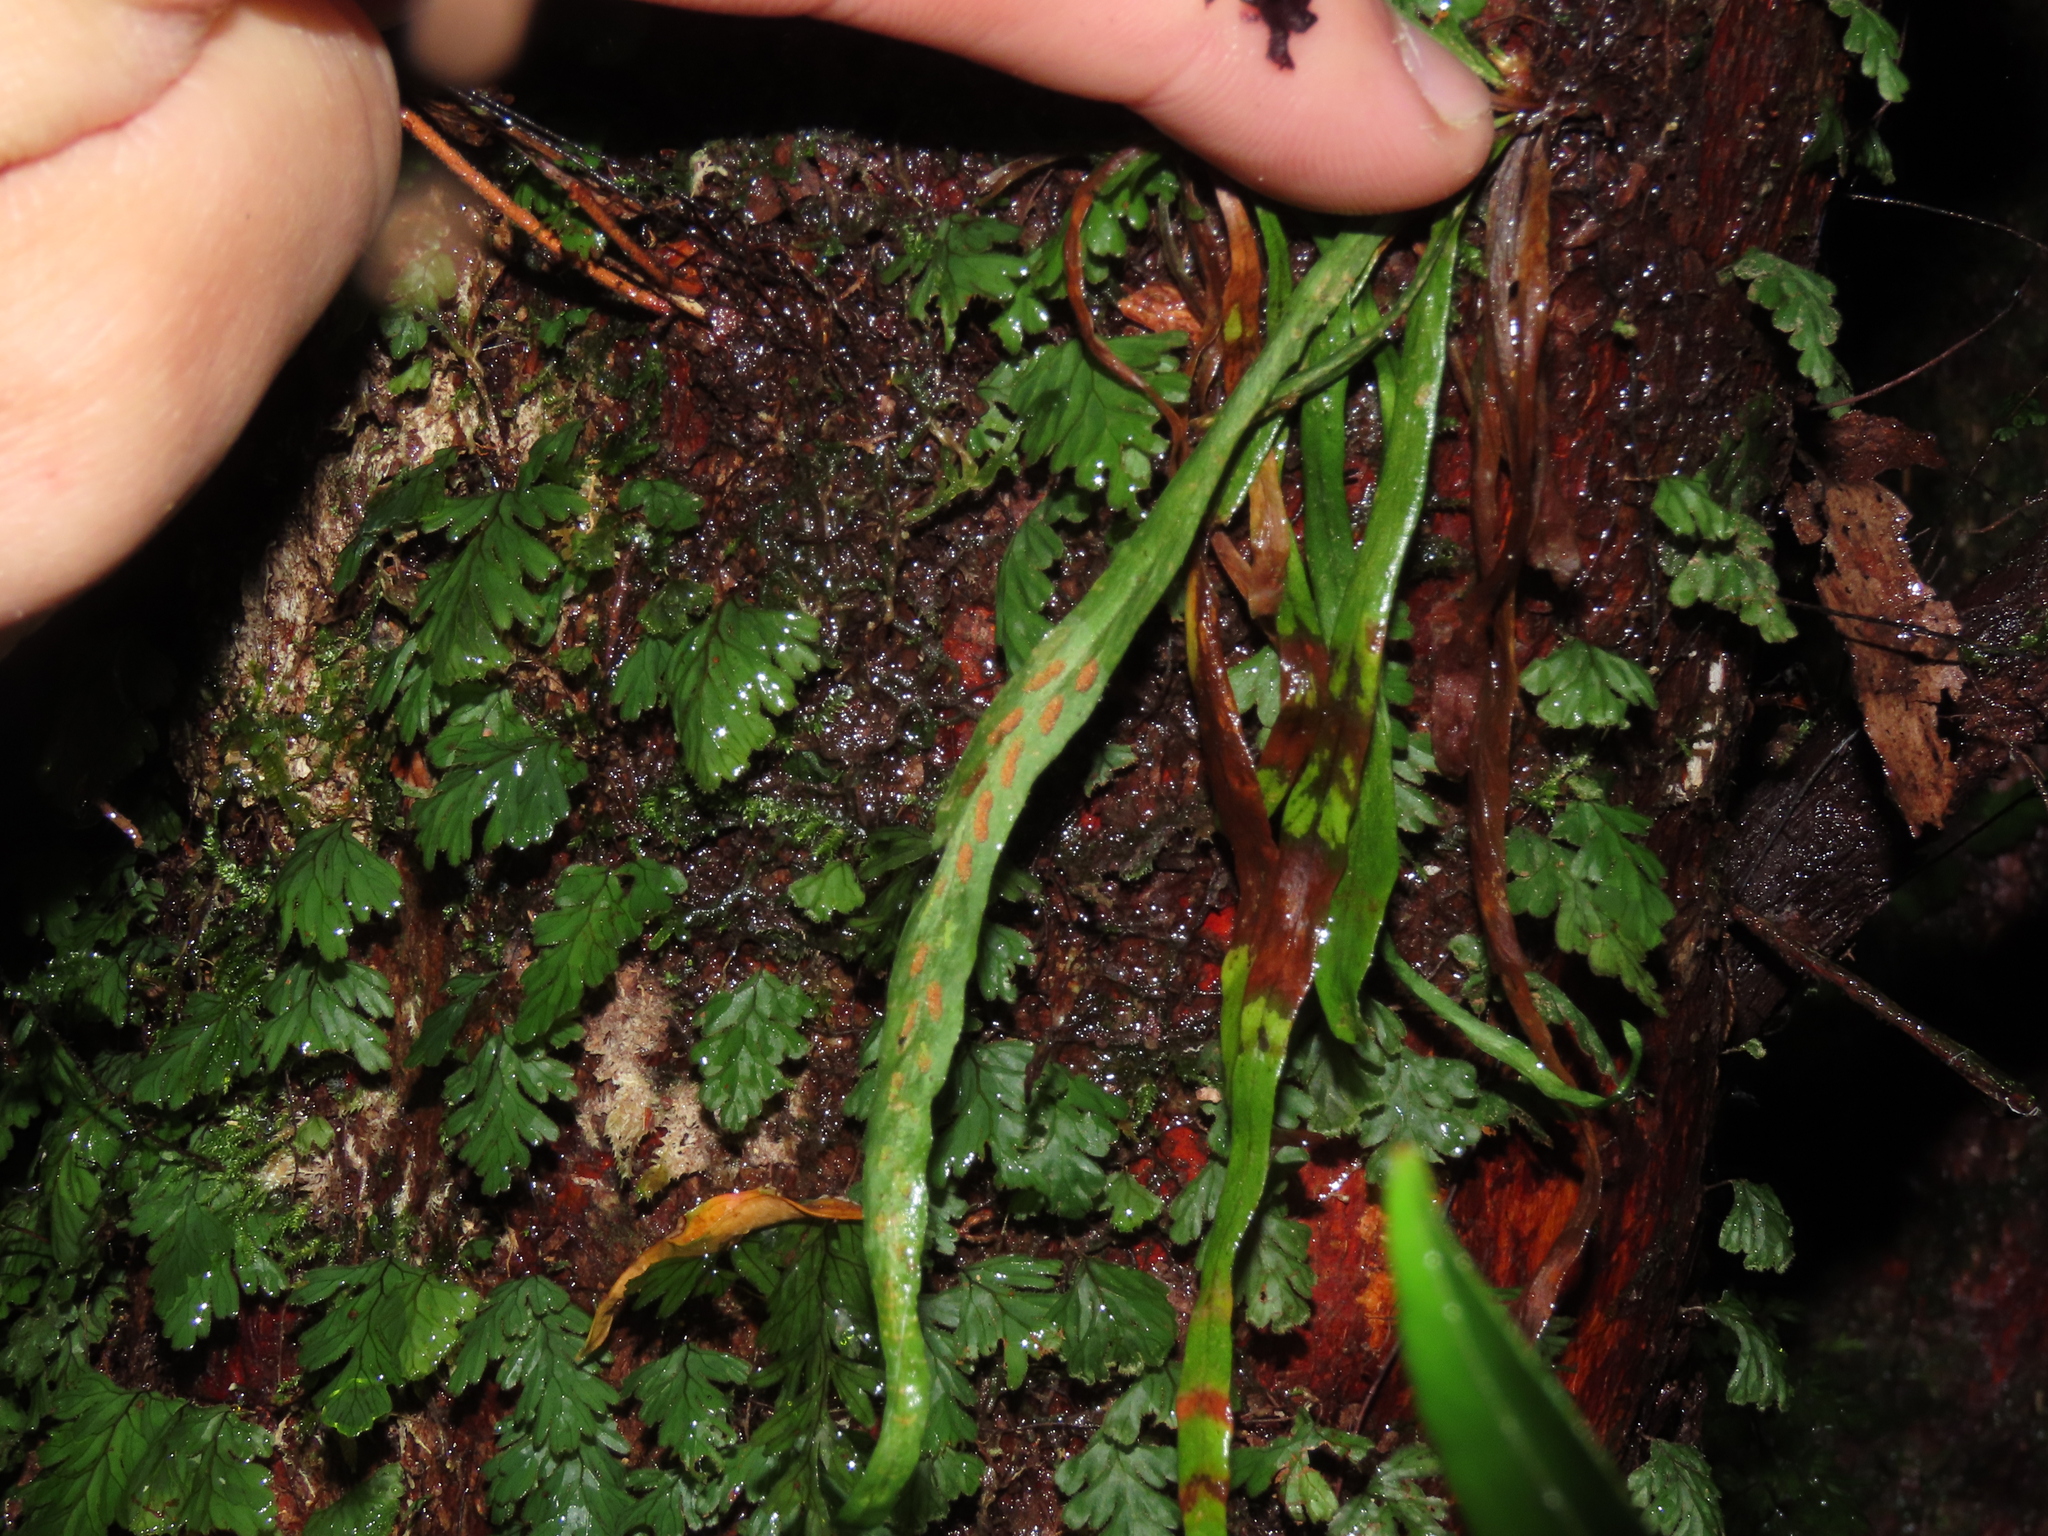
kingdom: Plantae
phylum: Tracheophyta
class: Polypodiopsida
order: Polypodiales
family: Polypodiaceae
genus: Notogrammitis
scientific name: Notogrammitis angustifolia
